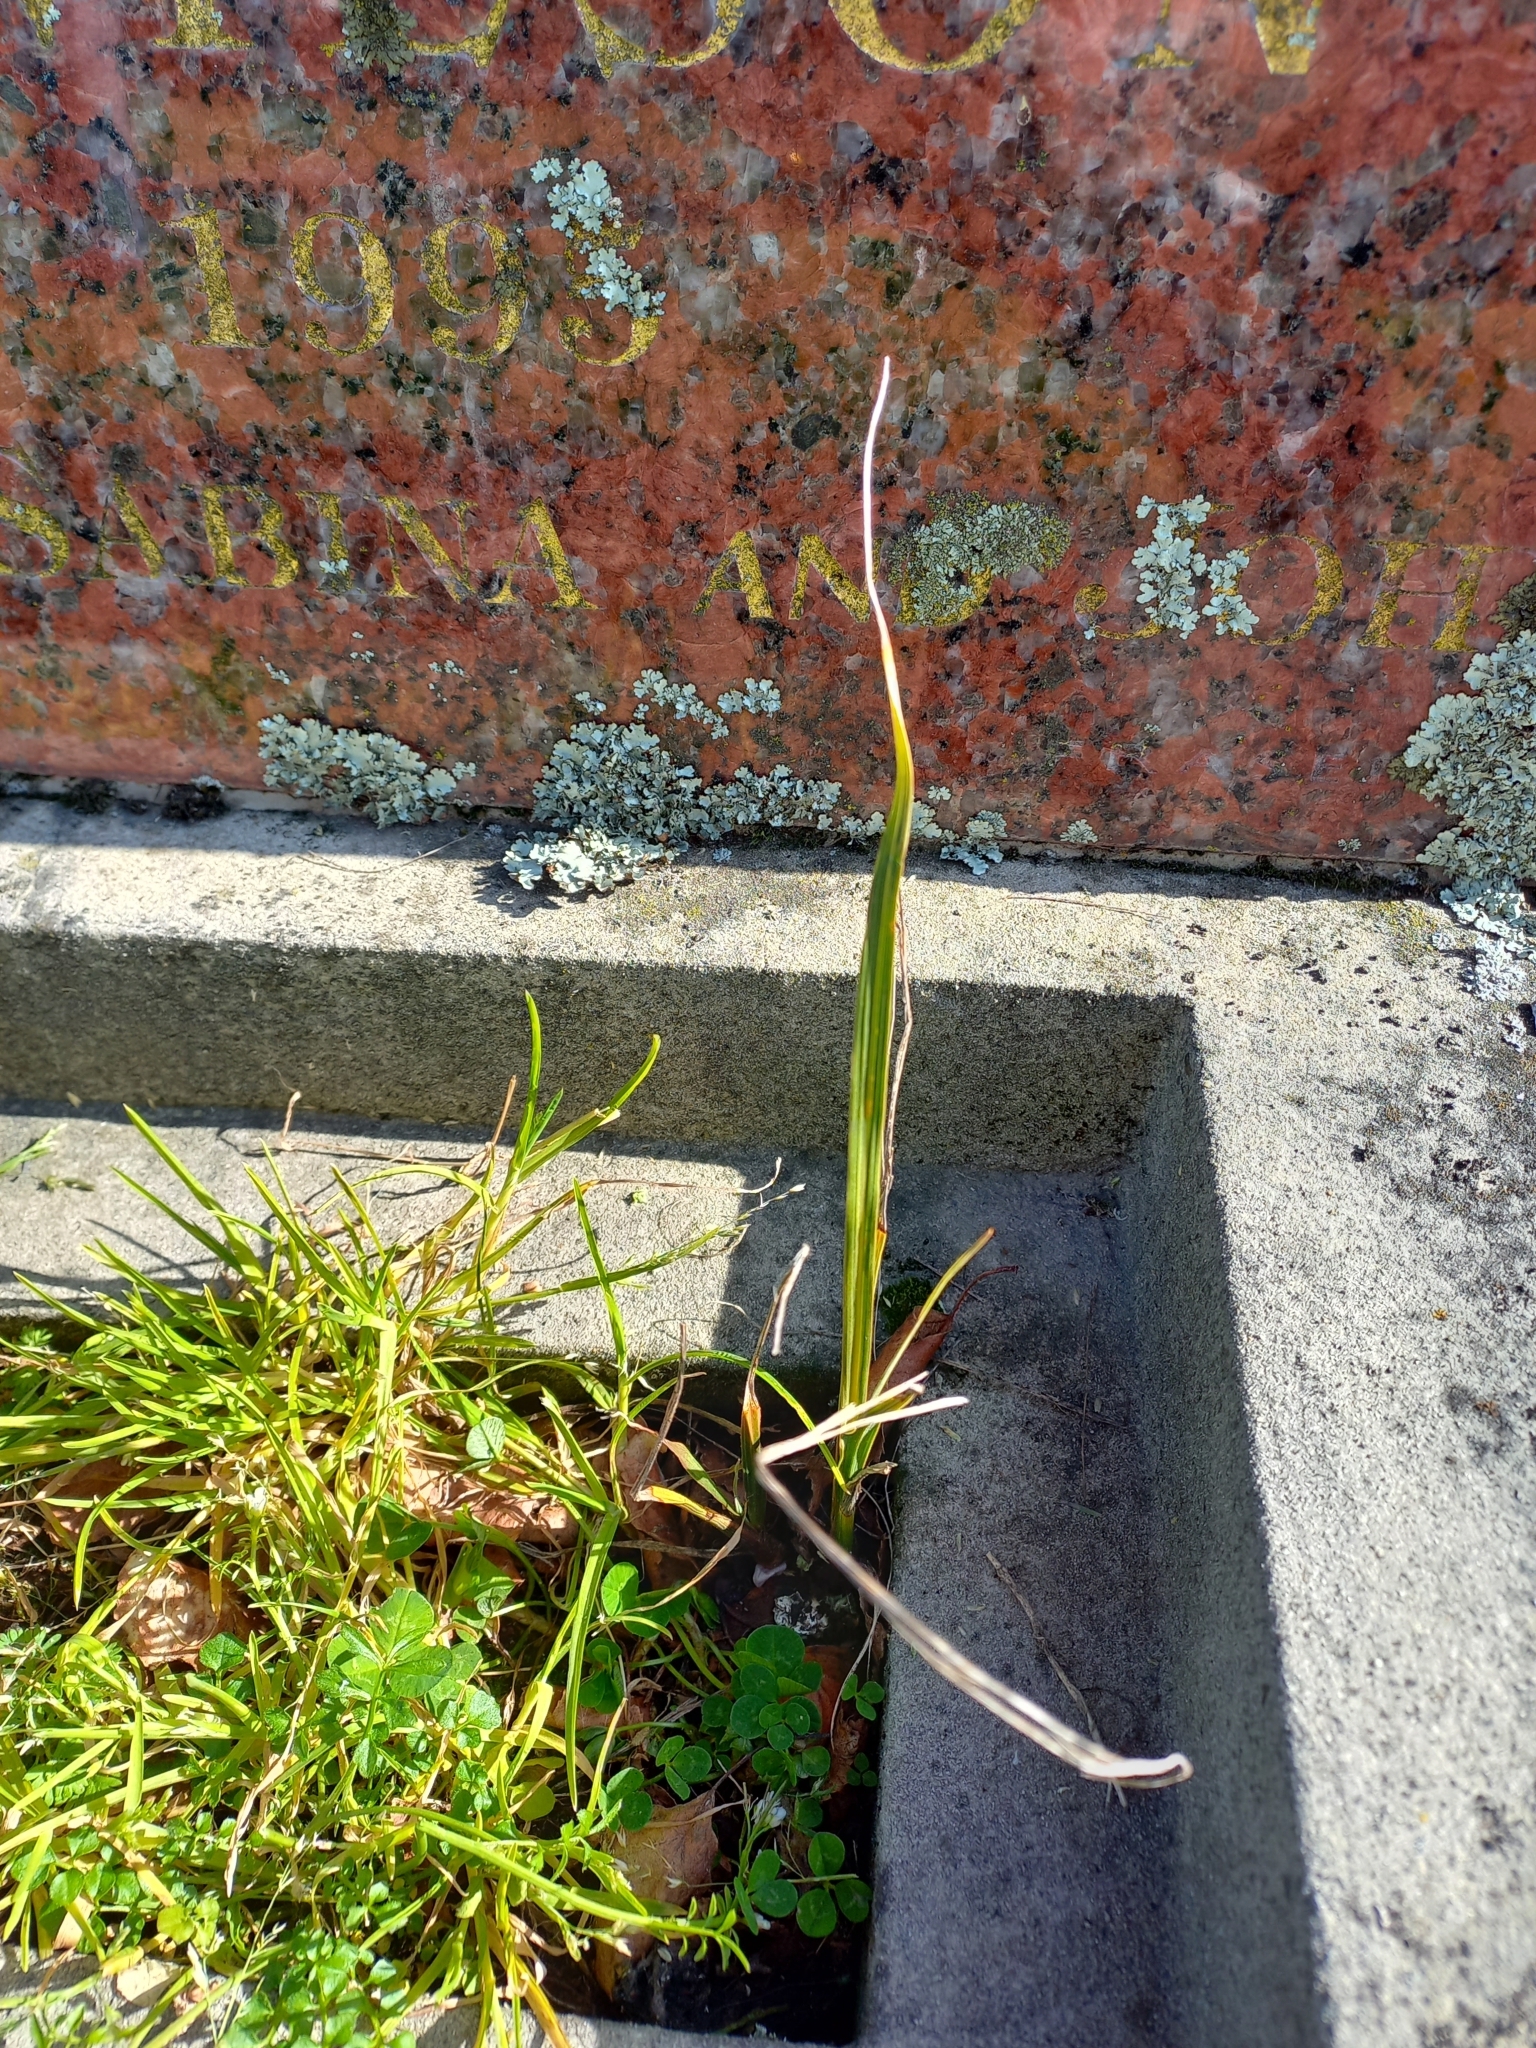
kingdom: Plantae
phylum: Tracheophyta
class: Liliopsida
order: Asparagales
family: Asparagaceae
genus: Cordyline
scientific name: Cordyline australis
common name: Cabbage-palm
